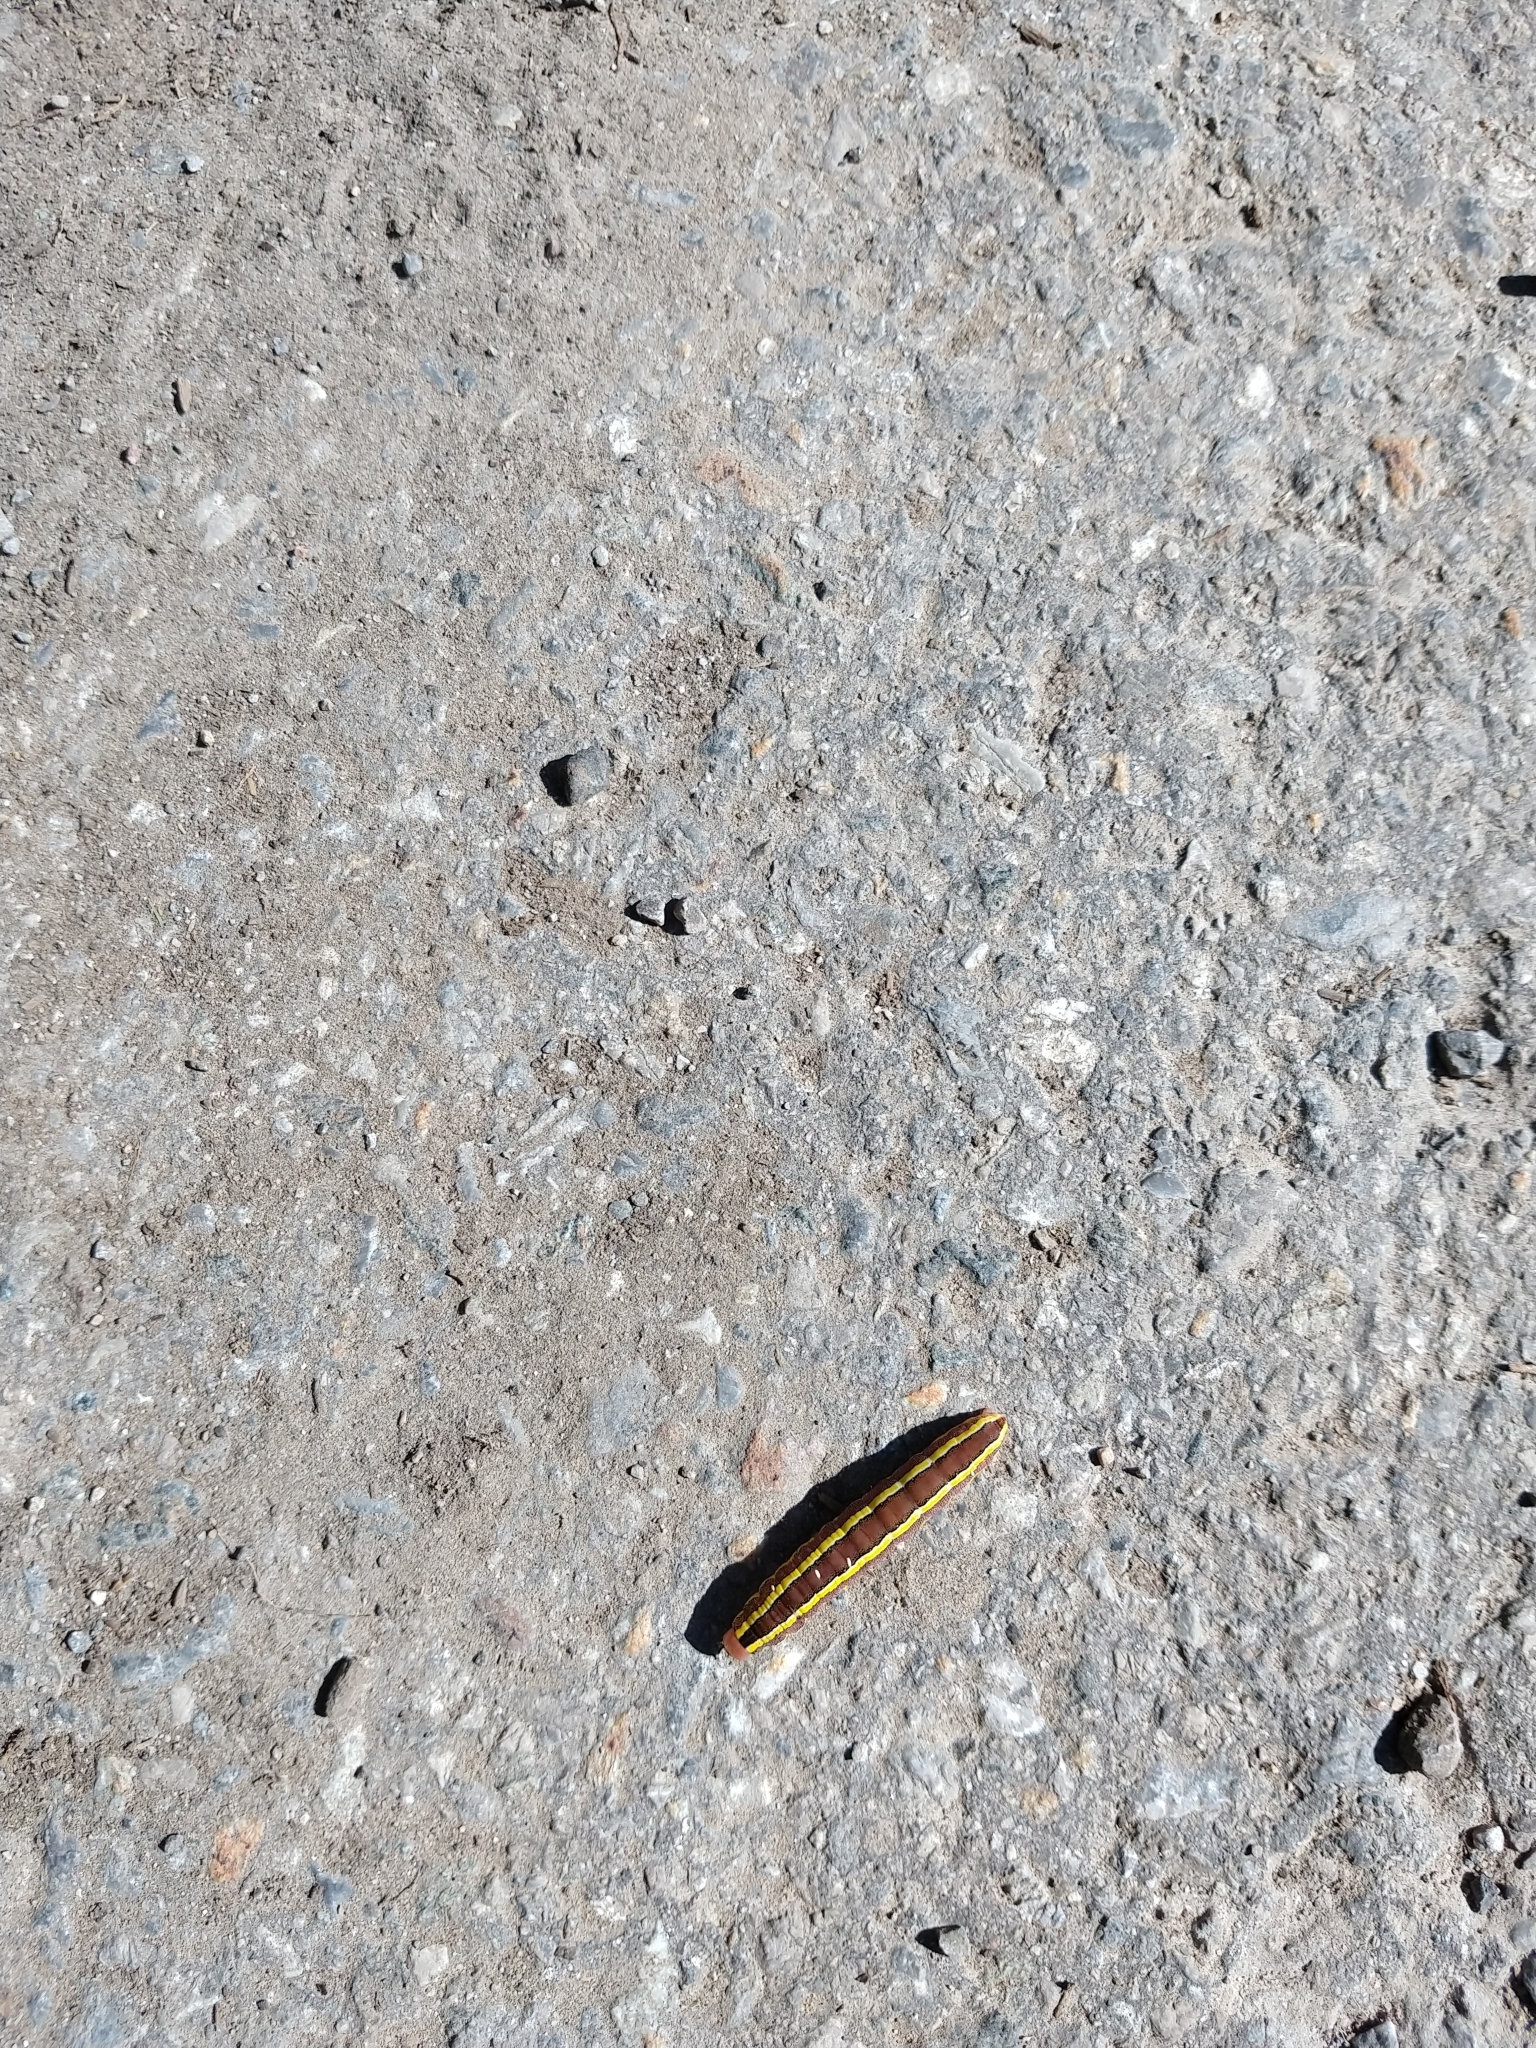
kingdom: Animalia
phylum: Arthropoda
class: Insecta
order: Lepidoptera
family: Noctuidae
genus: Ceramica
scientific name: Ceramica pisi
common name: Broom moth
